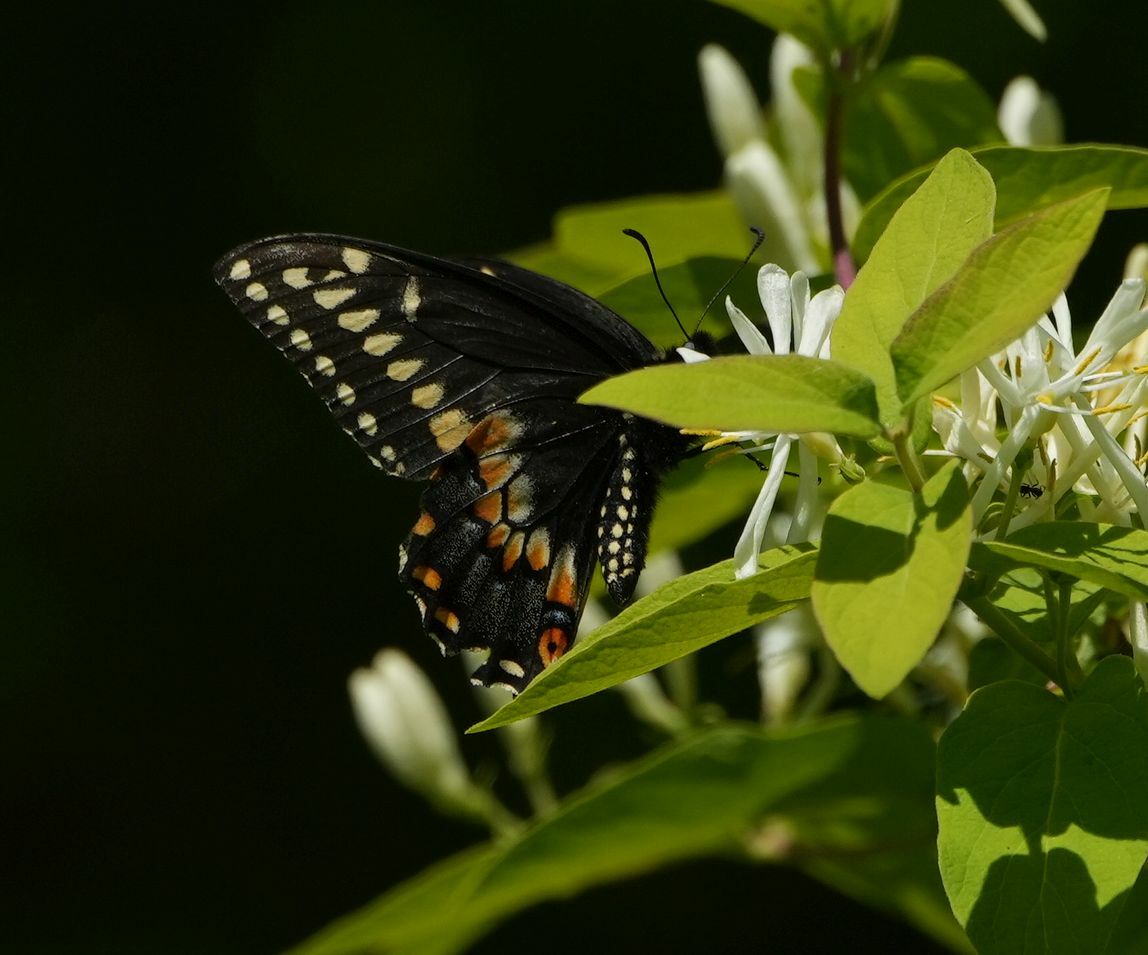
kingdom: Animalia
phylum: Arthropoda
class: Insecta
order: Lepidoptera
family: Papilionidae
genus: Papilio
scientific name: Papilio polyxenes
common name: Black swallowtail
